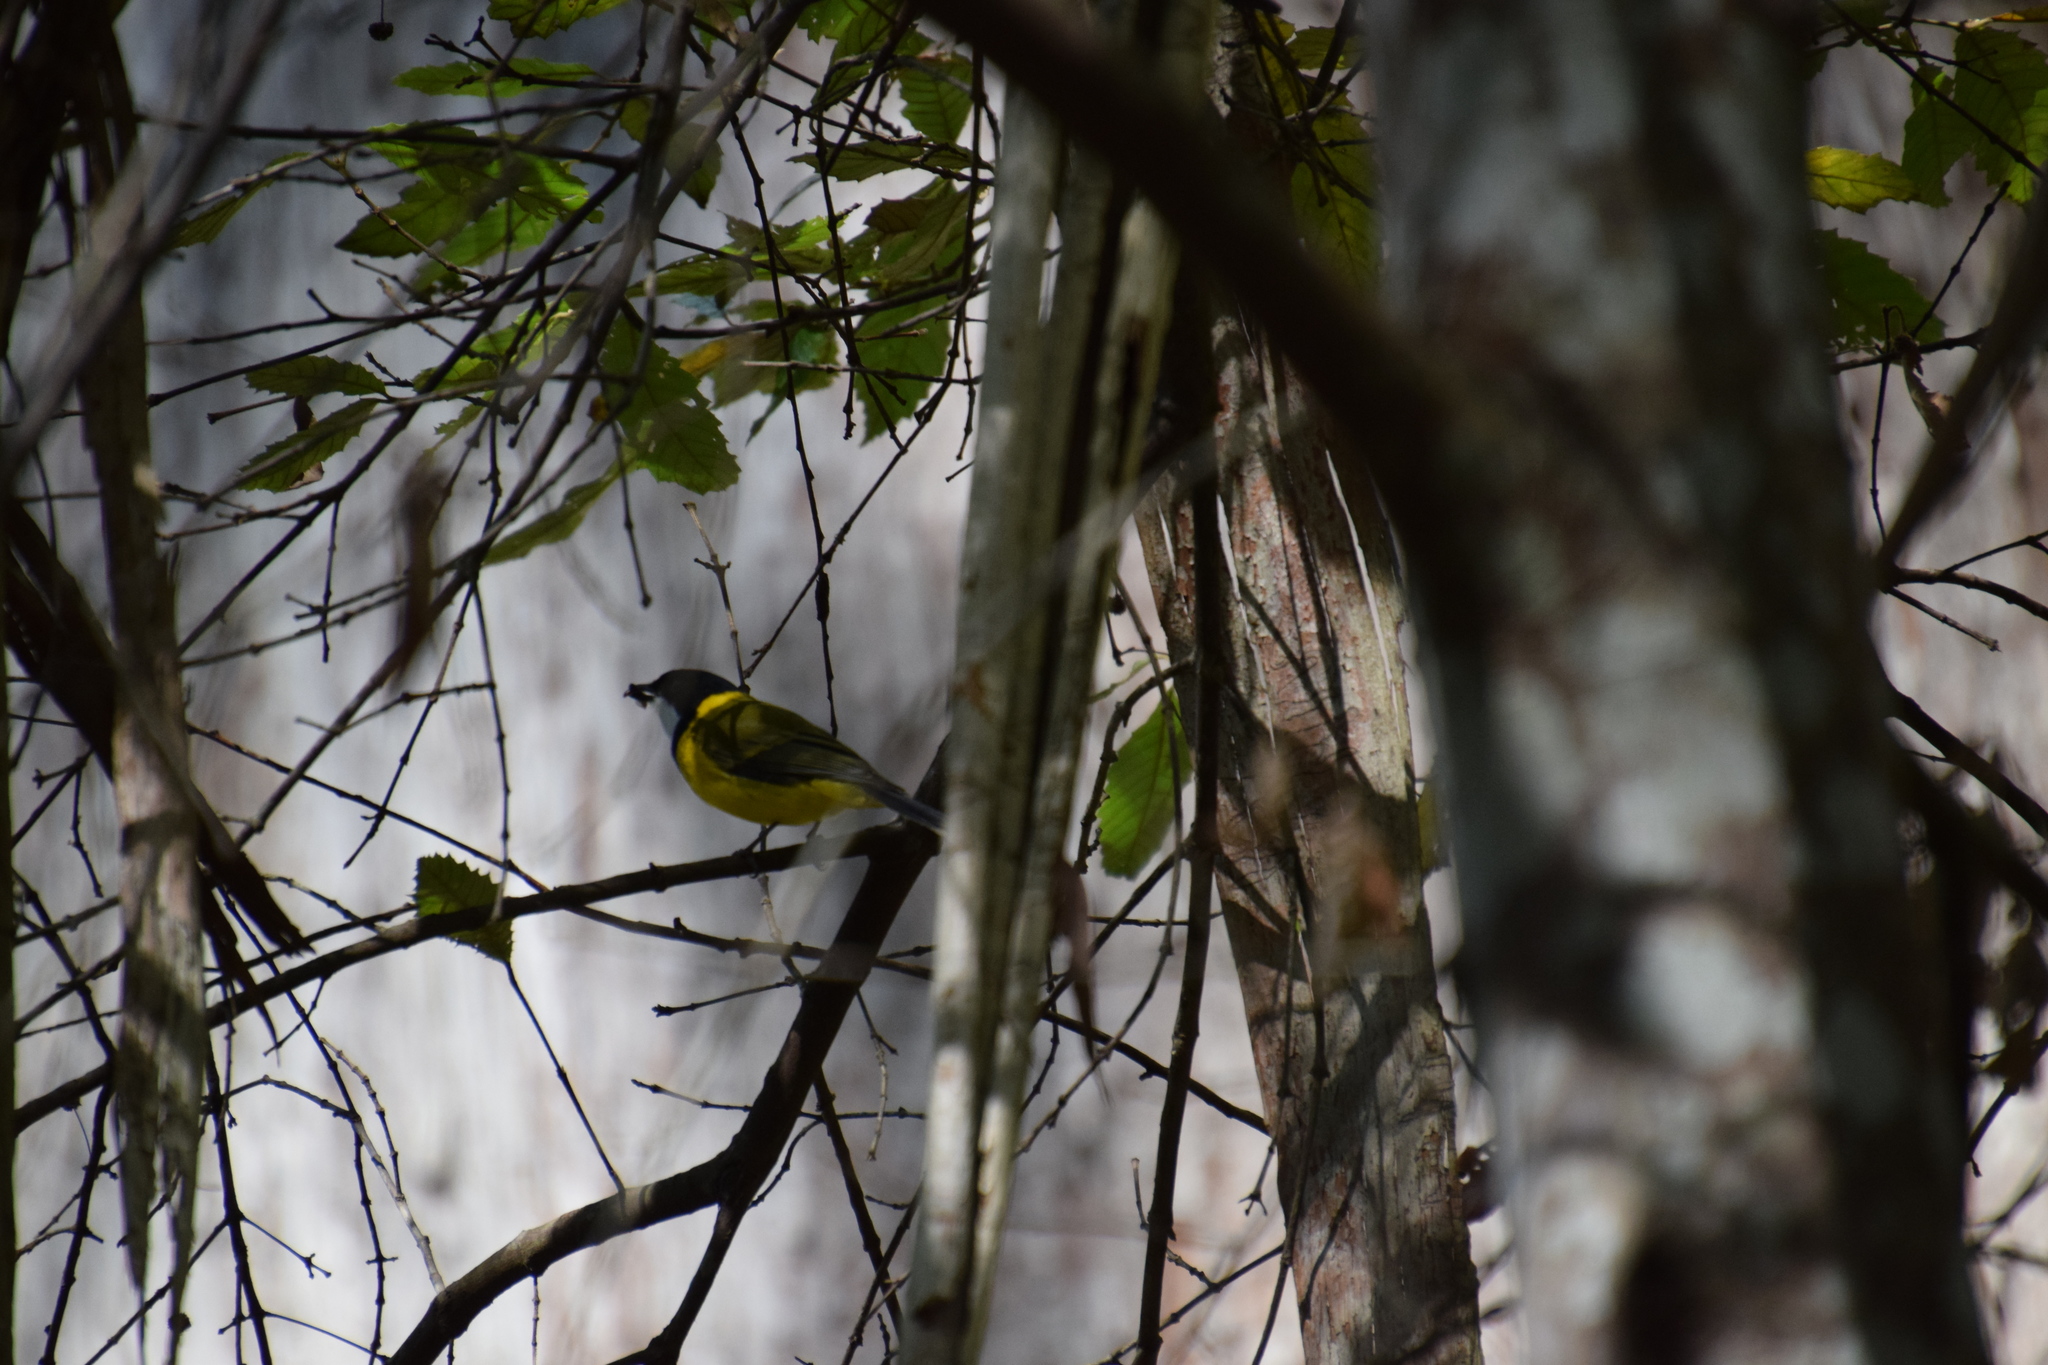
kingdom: Animalia
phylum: Chordata
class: Aves
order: Passeriformes
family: Pachycephalidae
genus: Pachycephala
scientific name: Pachycephala pectoralis
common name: Australian golden whistler
